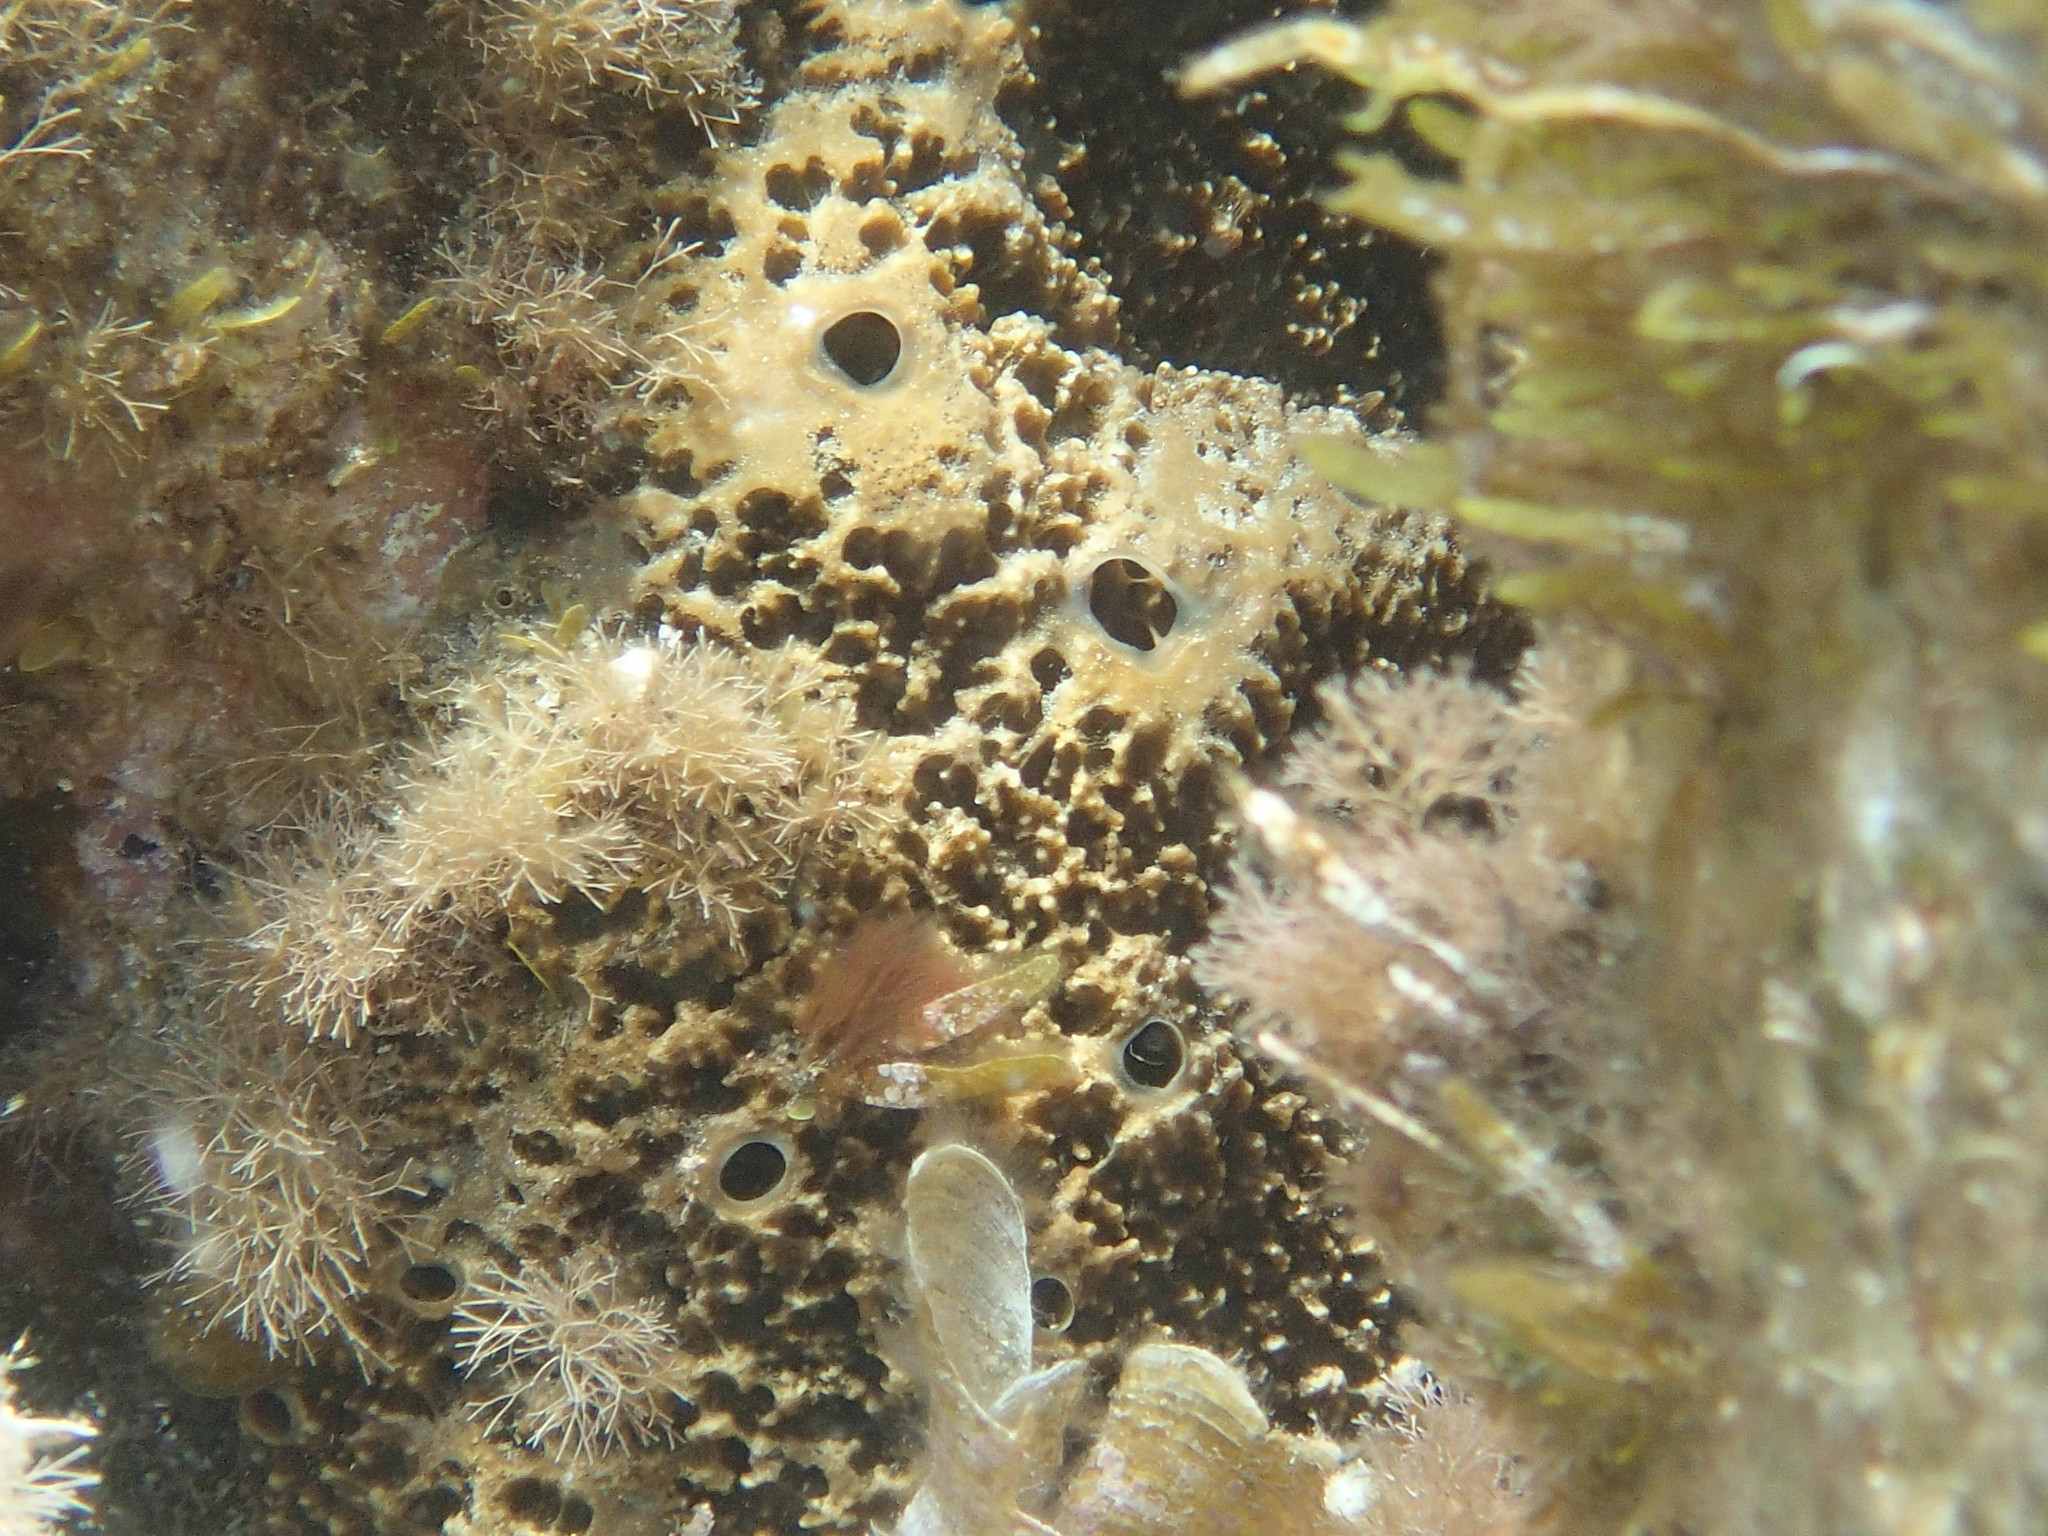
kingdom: Animalia
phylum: Porifera
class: Demospongiae
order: Dictyoceratida
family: Irciniidae
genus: Sarcotragus
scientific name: Sarcotragus fasciculatus
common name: Stinker sponge
